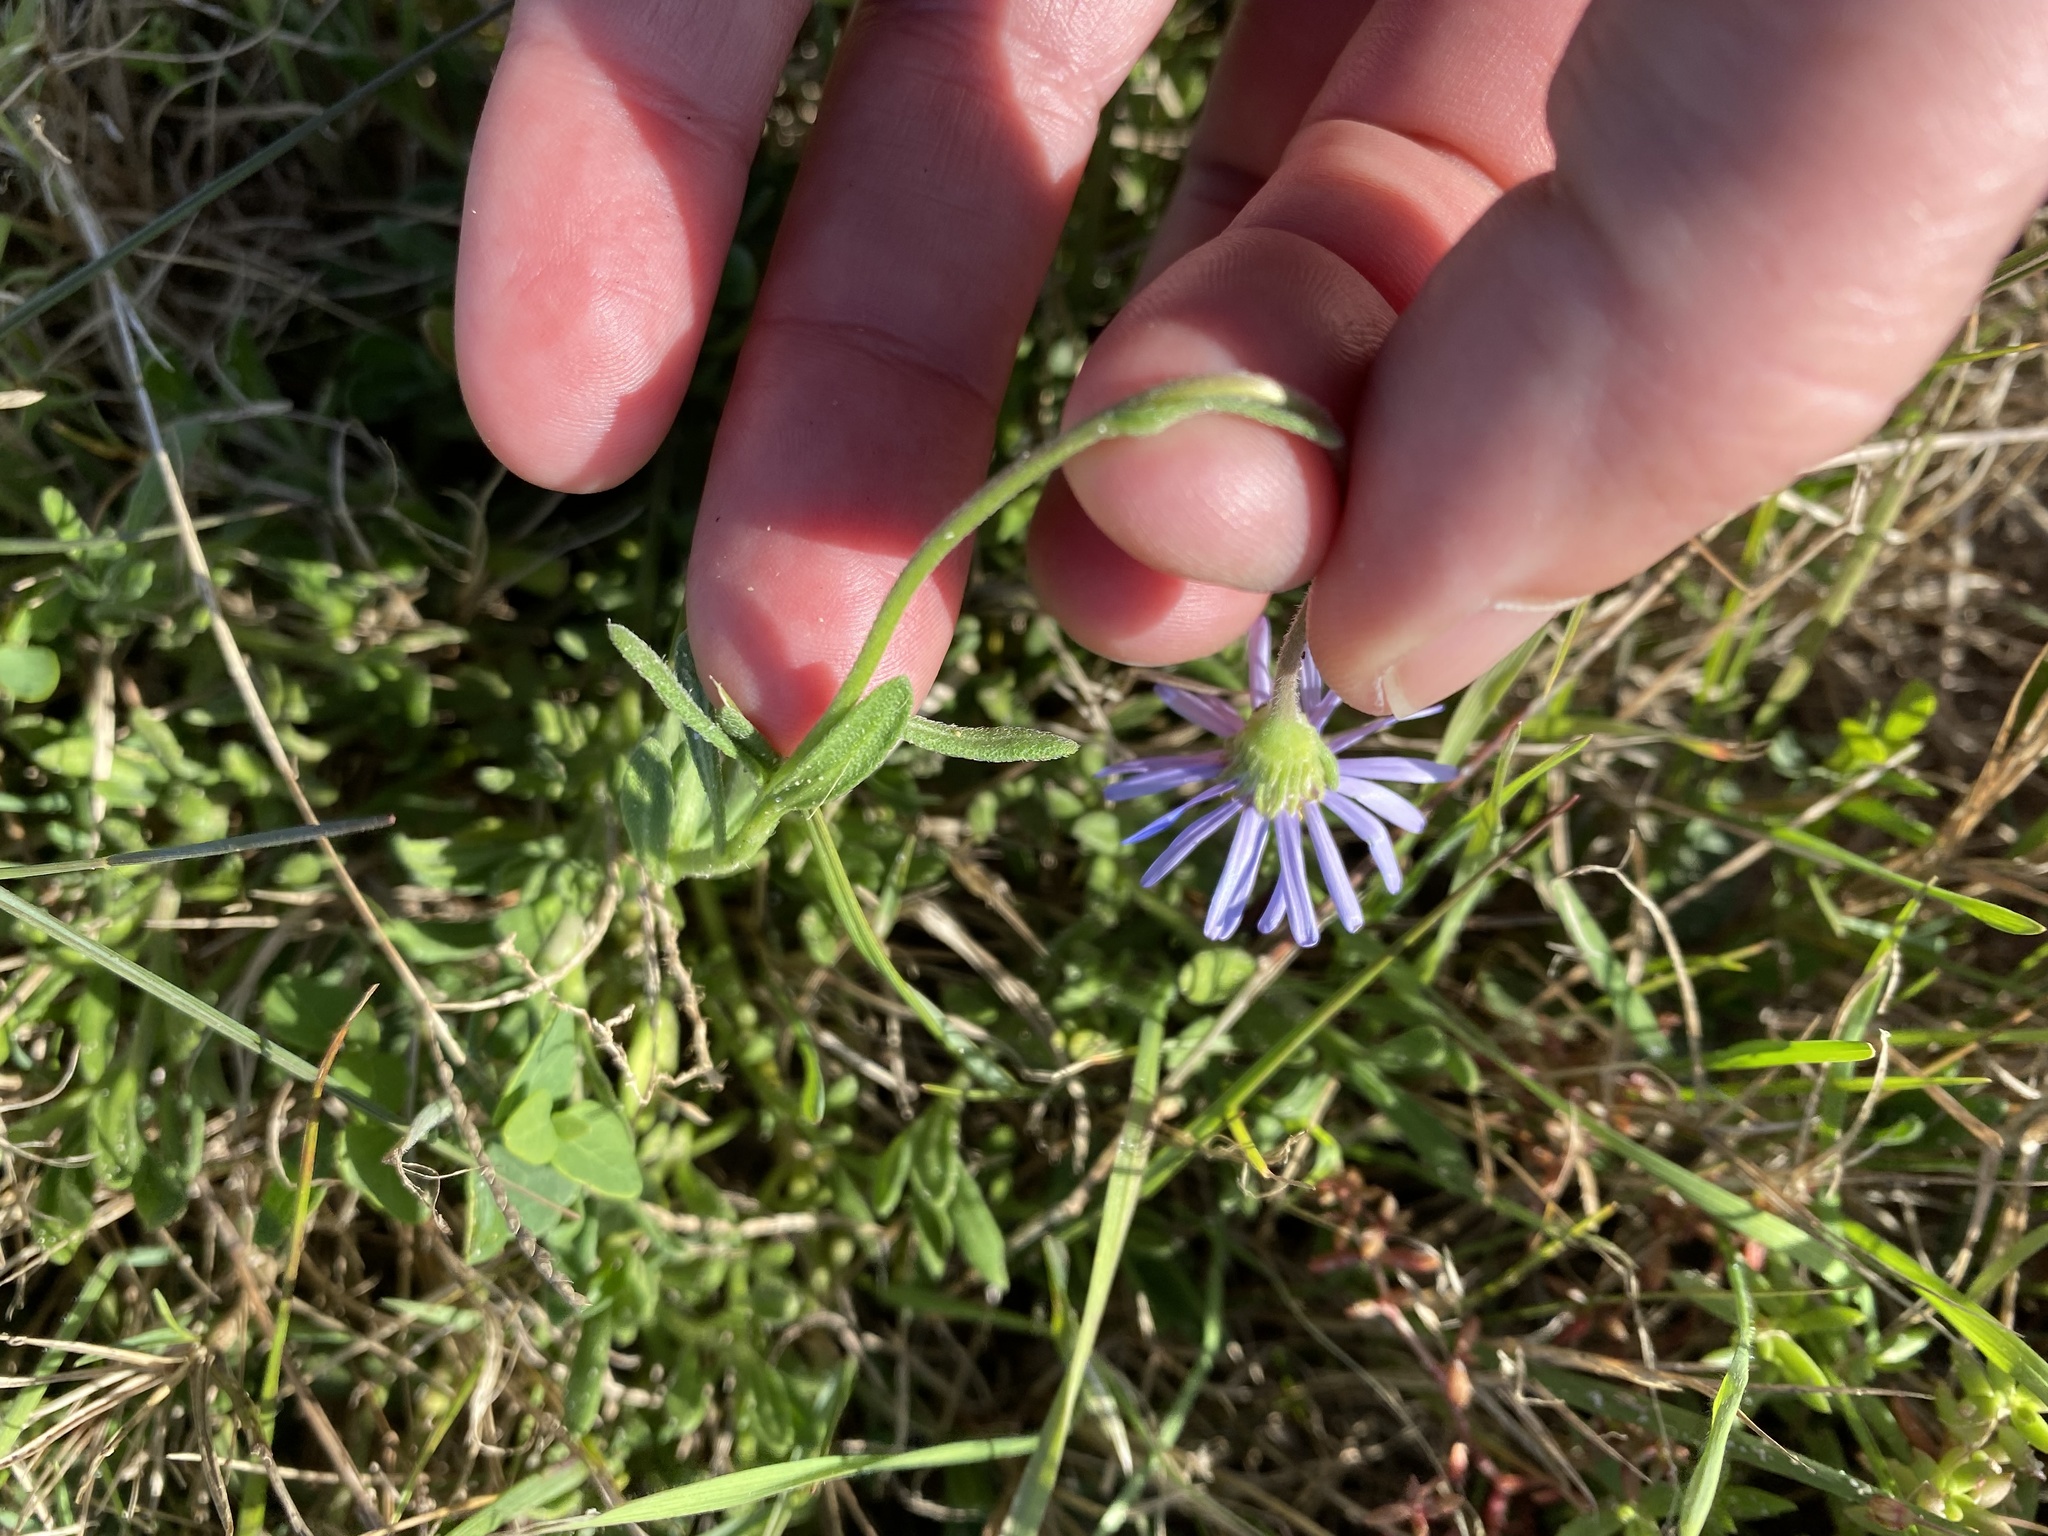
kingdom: Plantae
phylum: Tracheophyta
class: Magnoliopsida
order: Asterales
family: Asteraceae
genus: Felicia
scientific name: Felicia amoena
